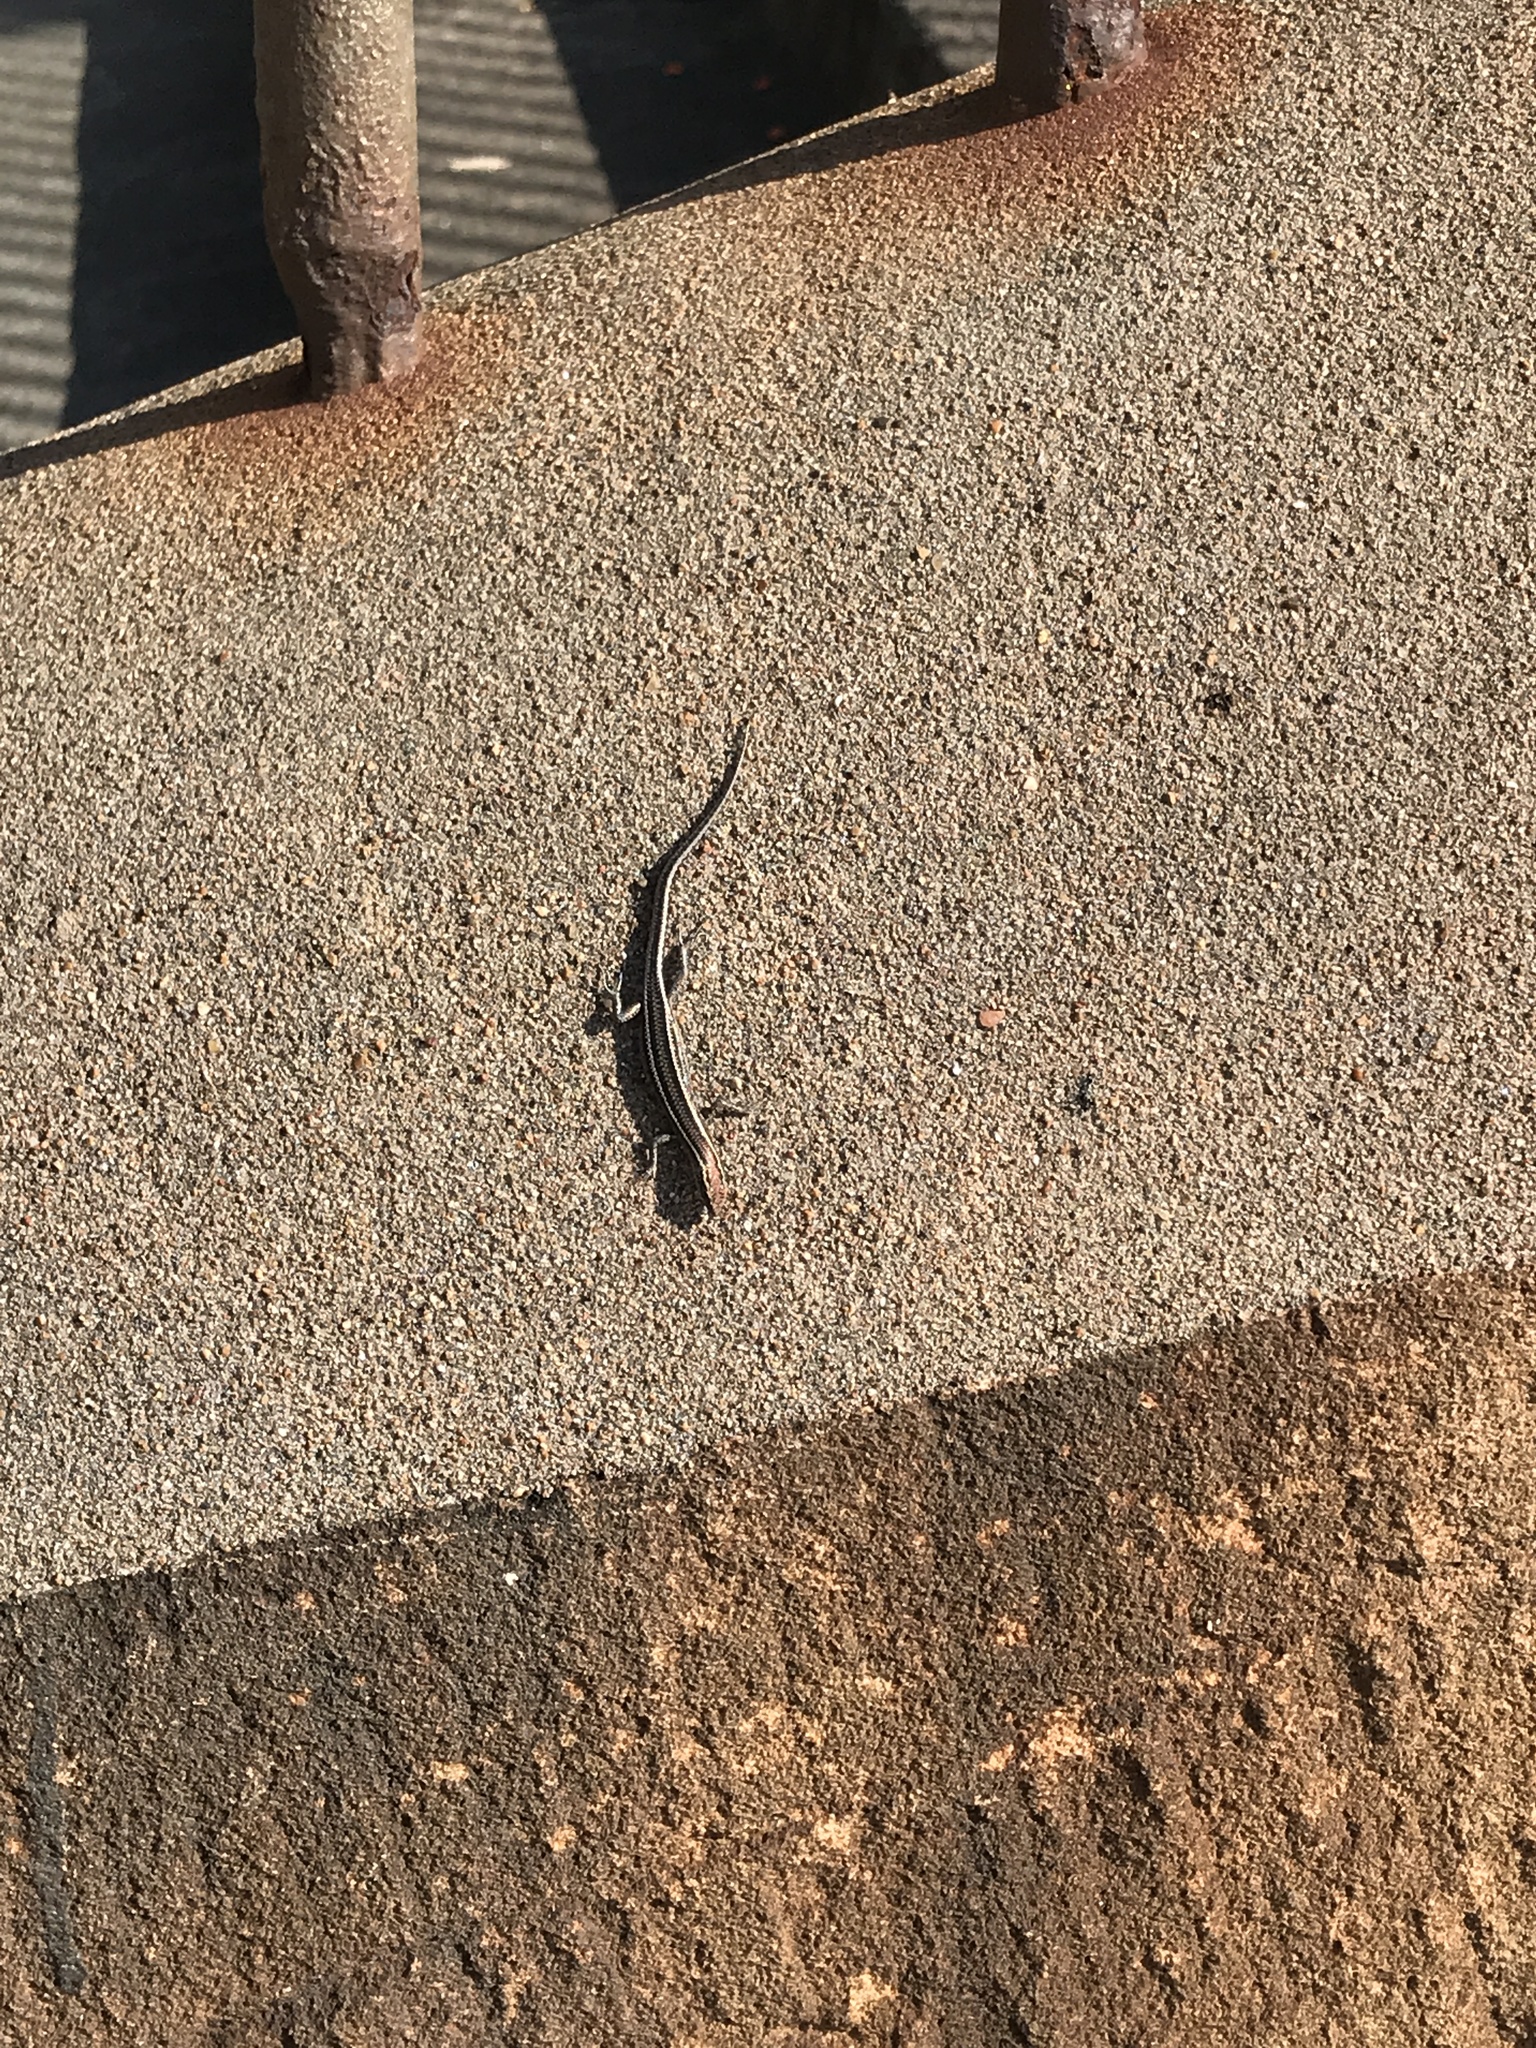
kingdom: Animalia
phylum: Chordata
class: Squamata
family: Scincidae
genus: Cryptoblepharus
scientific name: Cryptoblepharus pulcher
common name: Elegant snake-eyed skink
